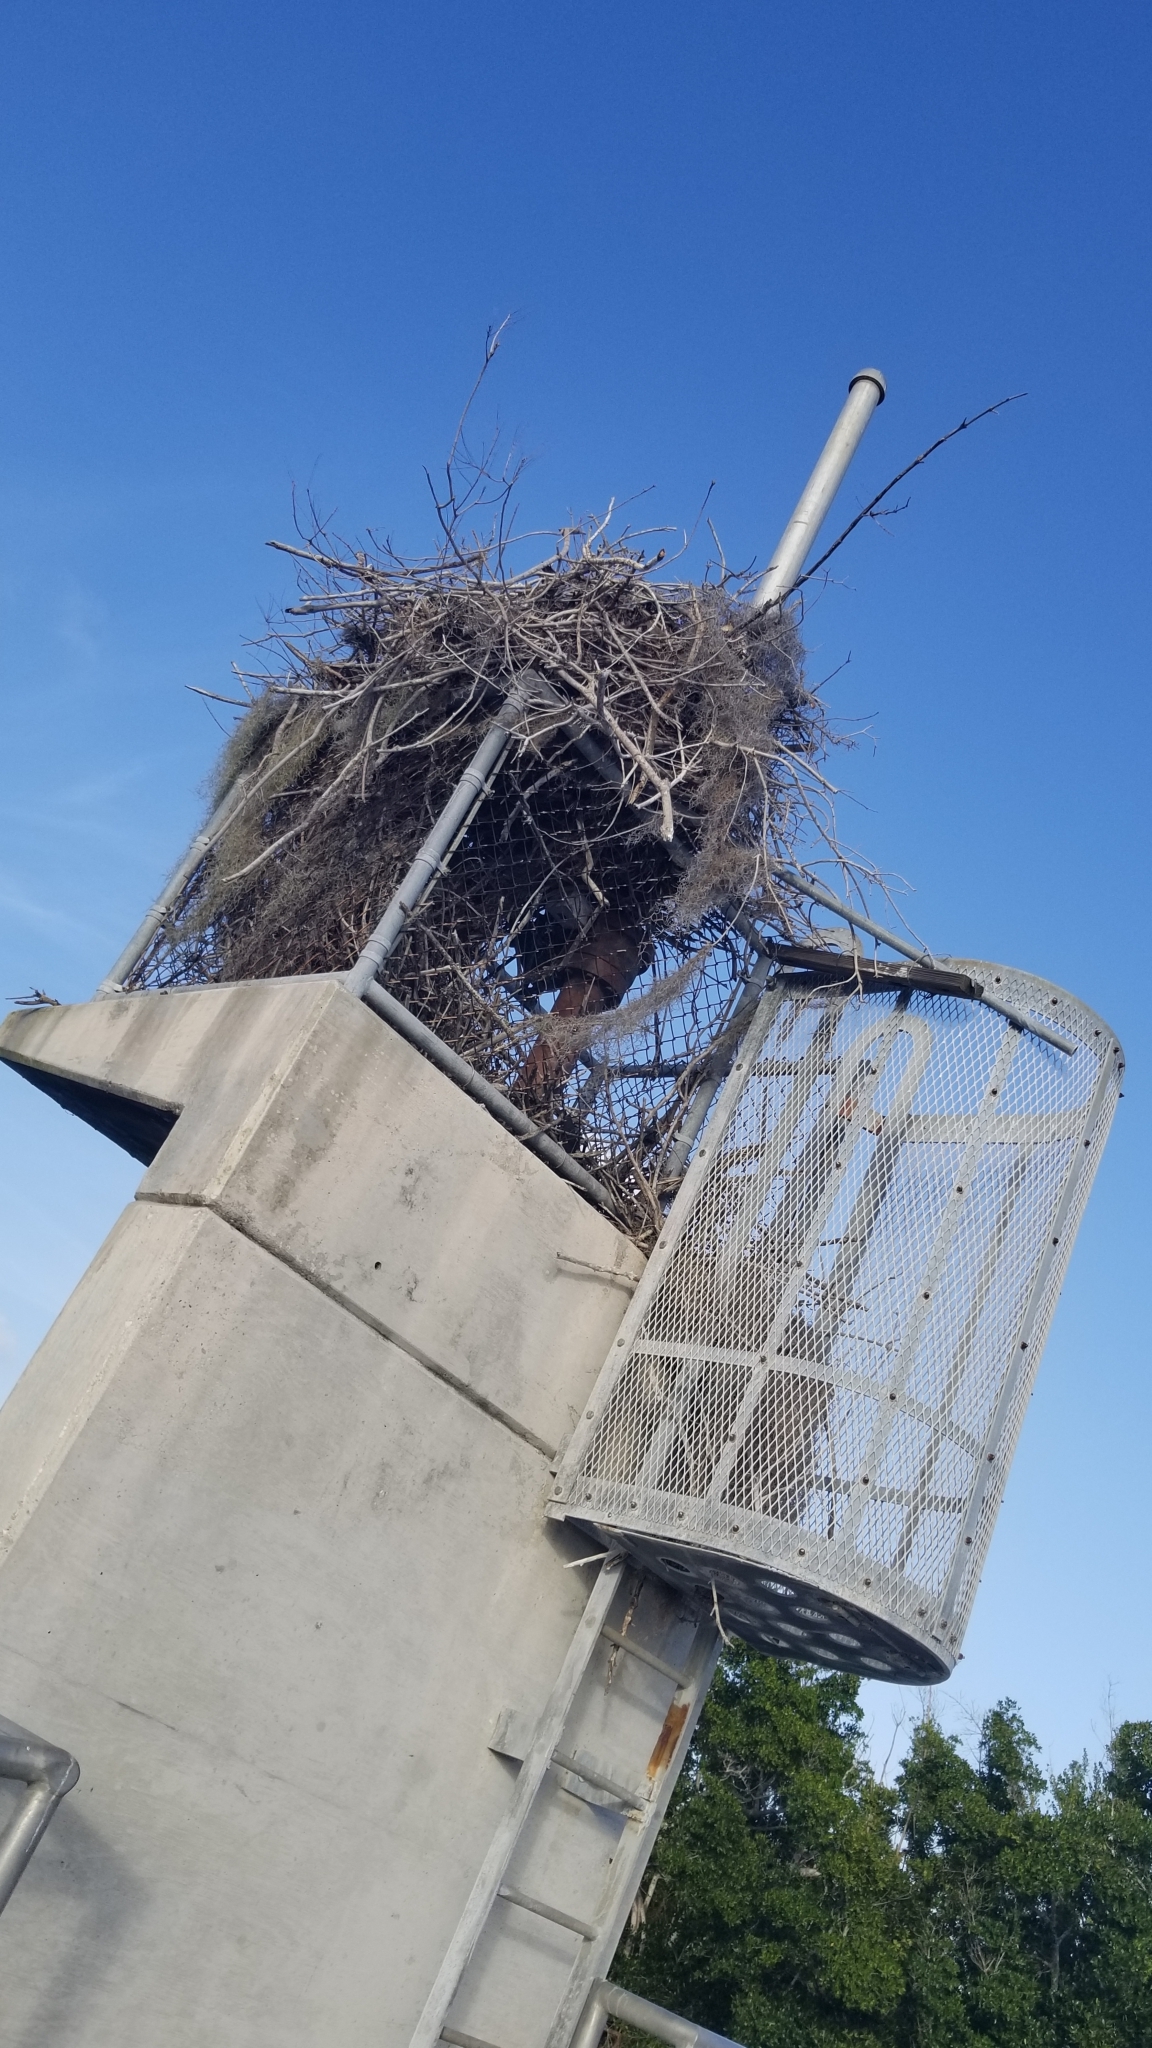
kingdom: Animalia
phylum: Chordata
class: Aves
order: Accipitriformes
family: Pandionidae
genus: Pandion
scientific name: Pandion haliaetus
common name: Osprey
